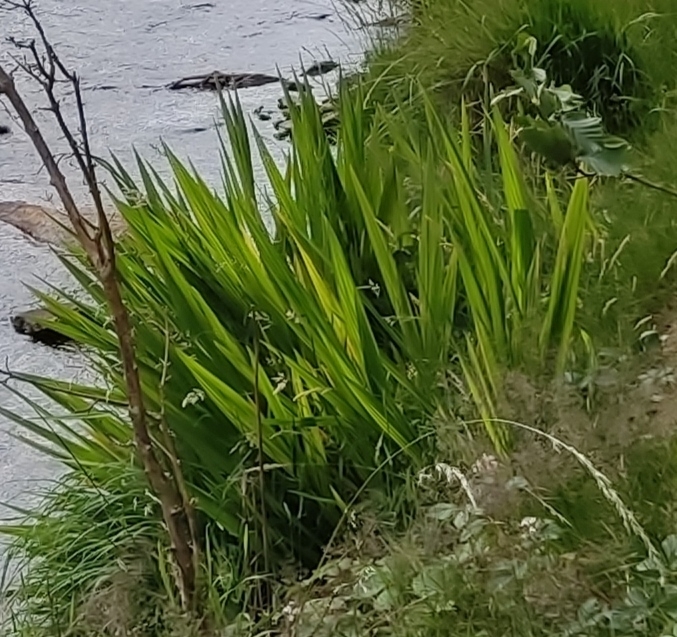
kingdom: Plantae
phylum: Tracheophyta
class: Liliopsida
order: Asparagales
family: Iridaceae
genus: Iris
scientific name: Iris pseudacorus
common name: Yellow flag
